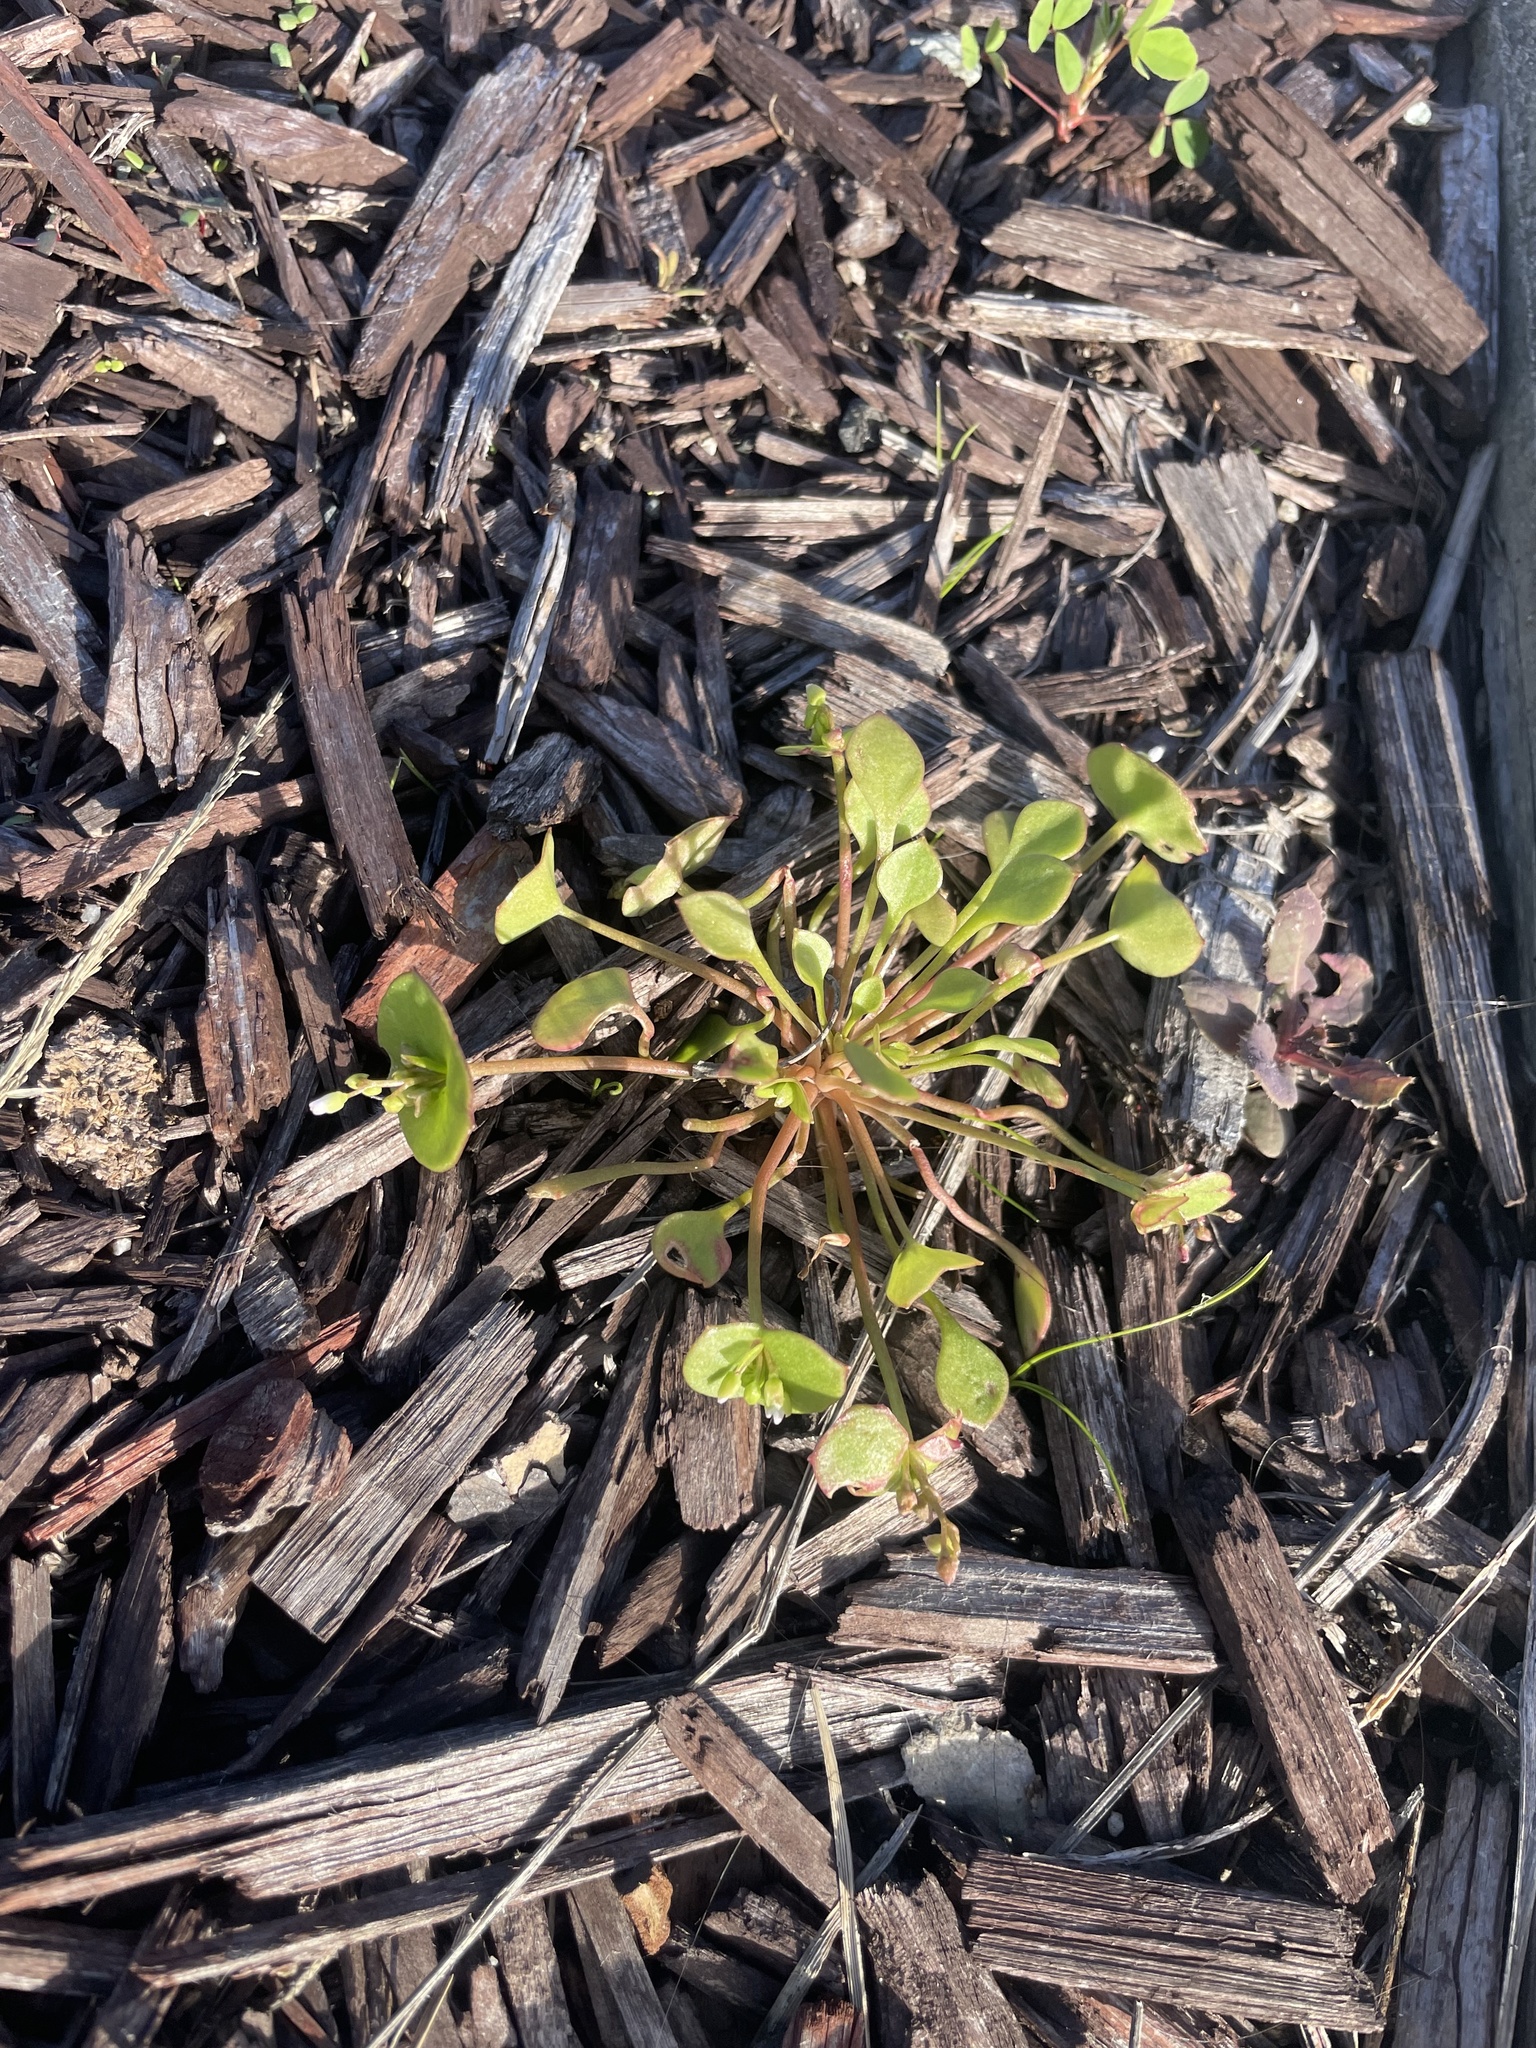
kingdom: Plantae
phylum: Tracheophyta
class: Magnoliopsida
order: Caryophyllales
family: Montiaceae
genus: Claytonia
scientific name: Claytonia perfoliata
